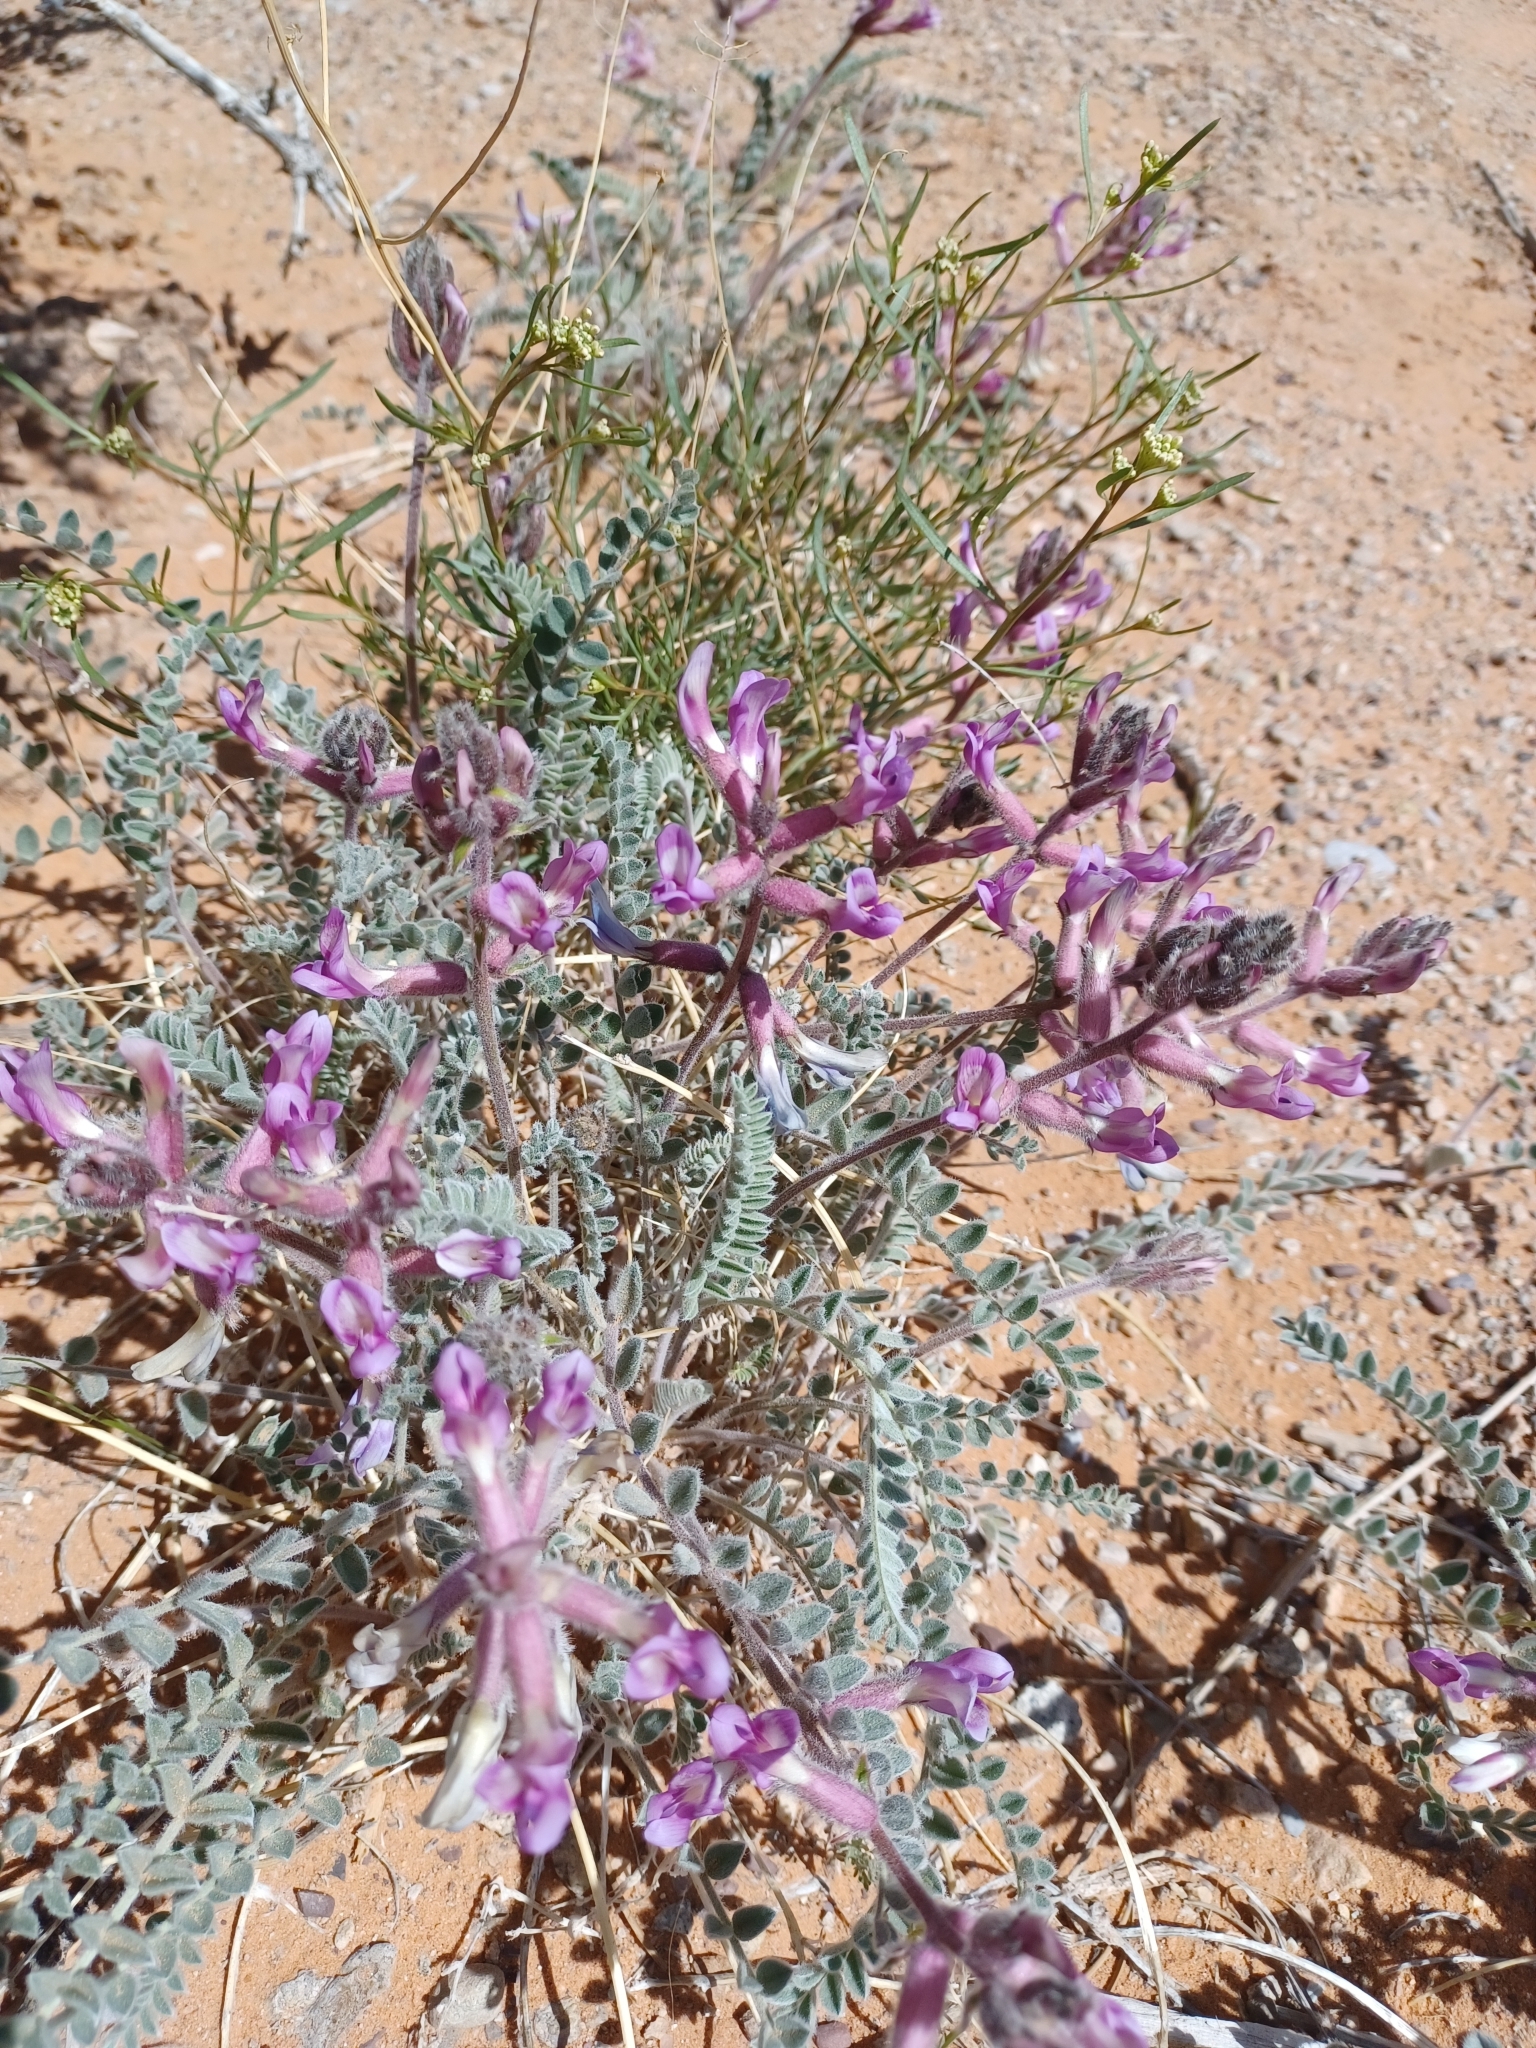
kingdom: Plantae
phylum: Tracheophyta
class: Magnoliopsida
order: Fabales
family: Fabaceae
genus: Astragalus
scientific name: Astragalus mollissimus
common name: Woolly locoweed
